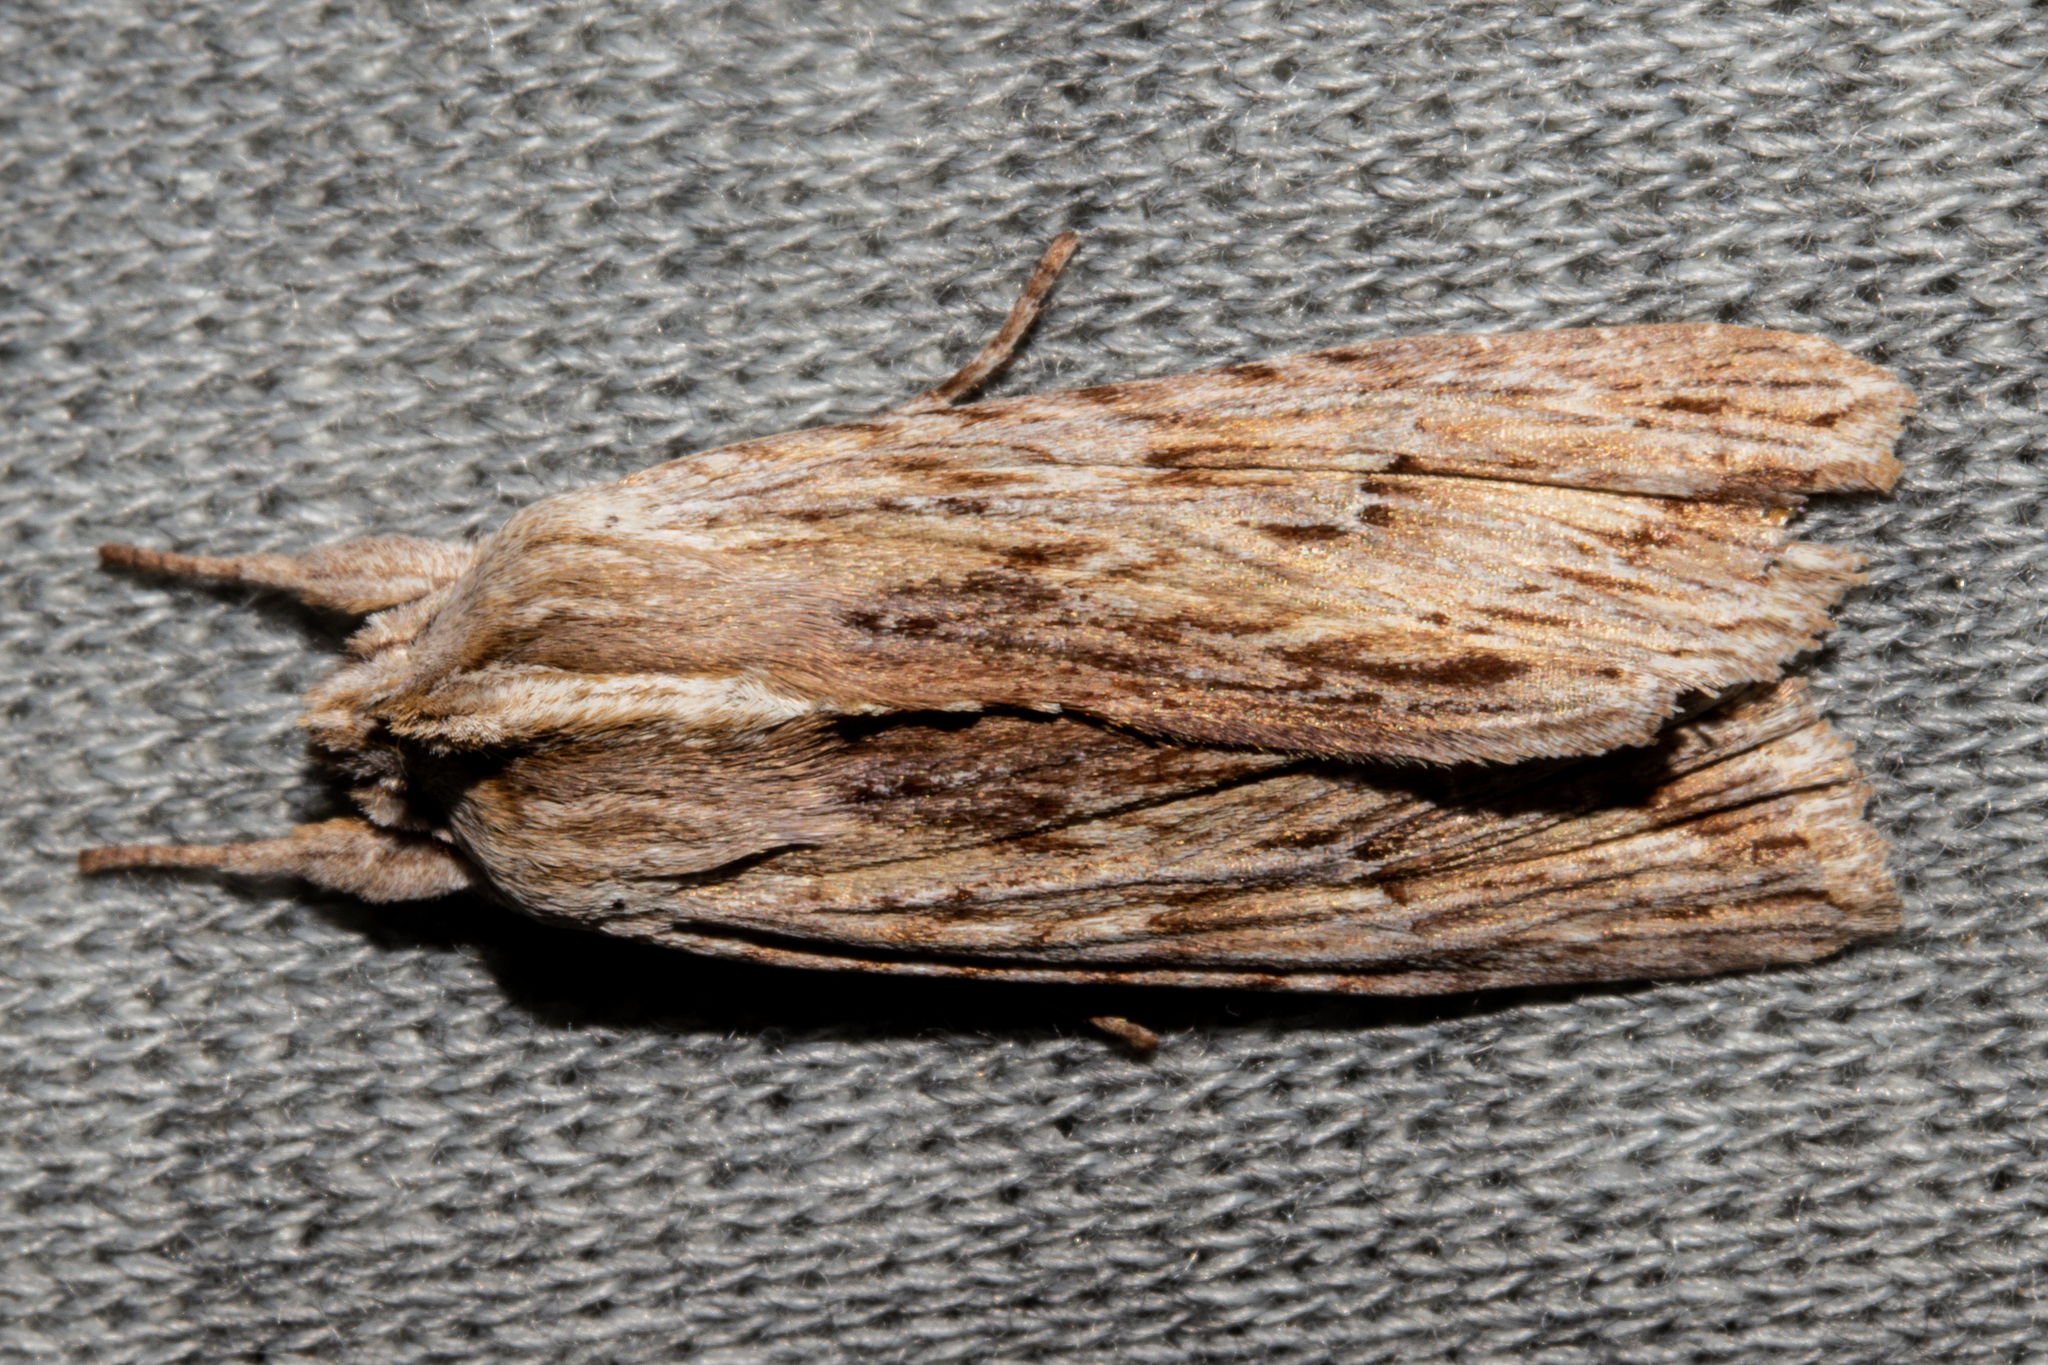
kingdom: Animalia
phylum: Arthropoda
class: Insecta
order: Lepidoptera
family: Noctuidae
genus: Physetica
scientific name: Physetica prionistis
